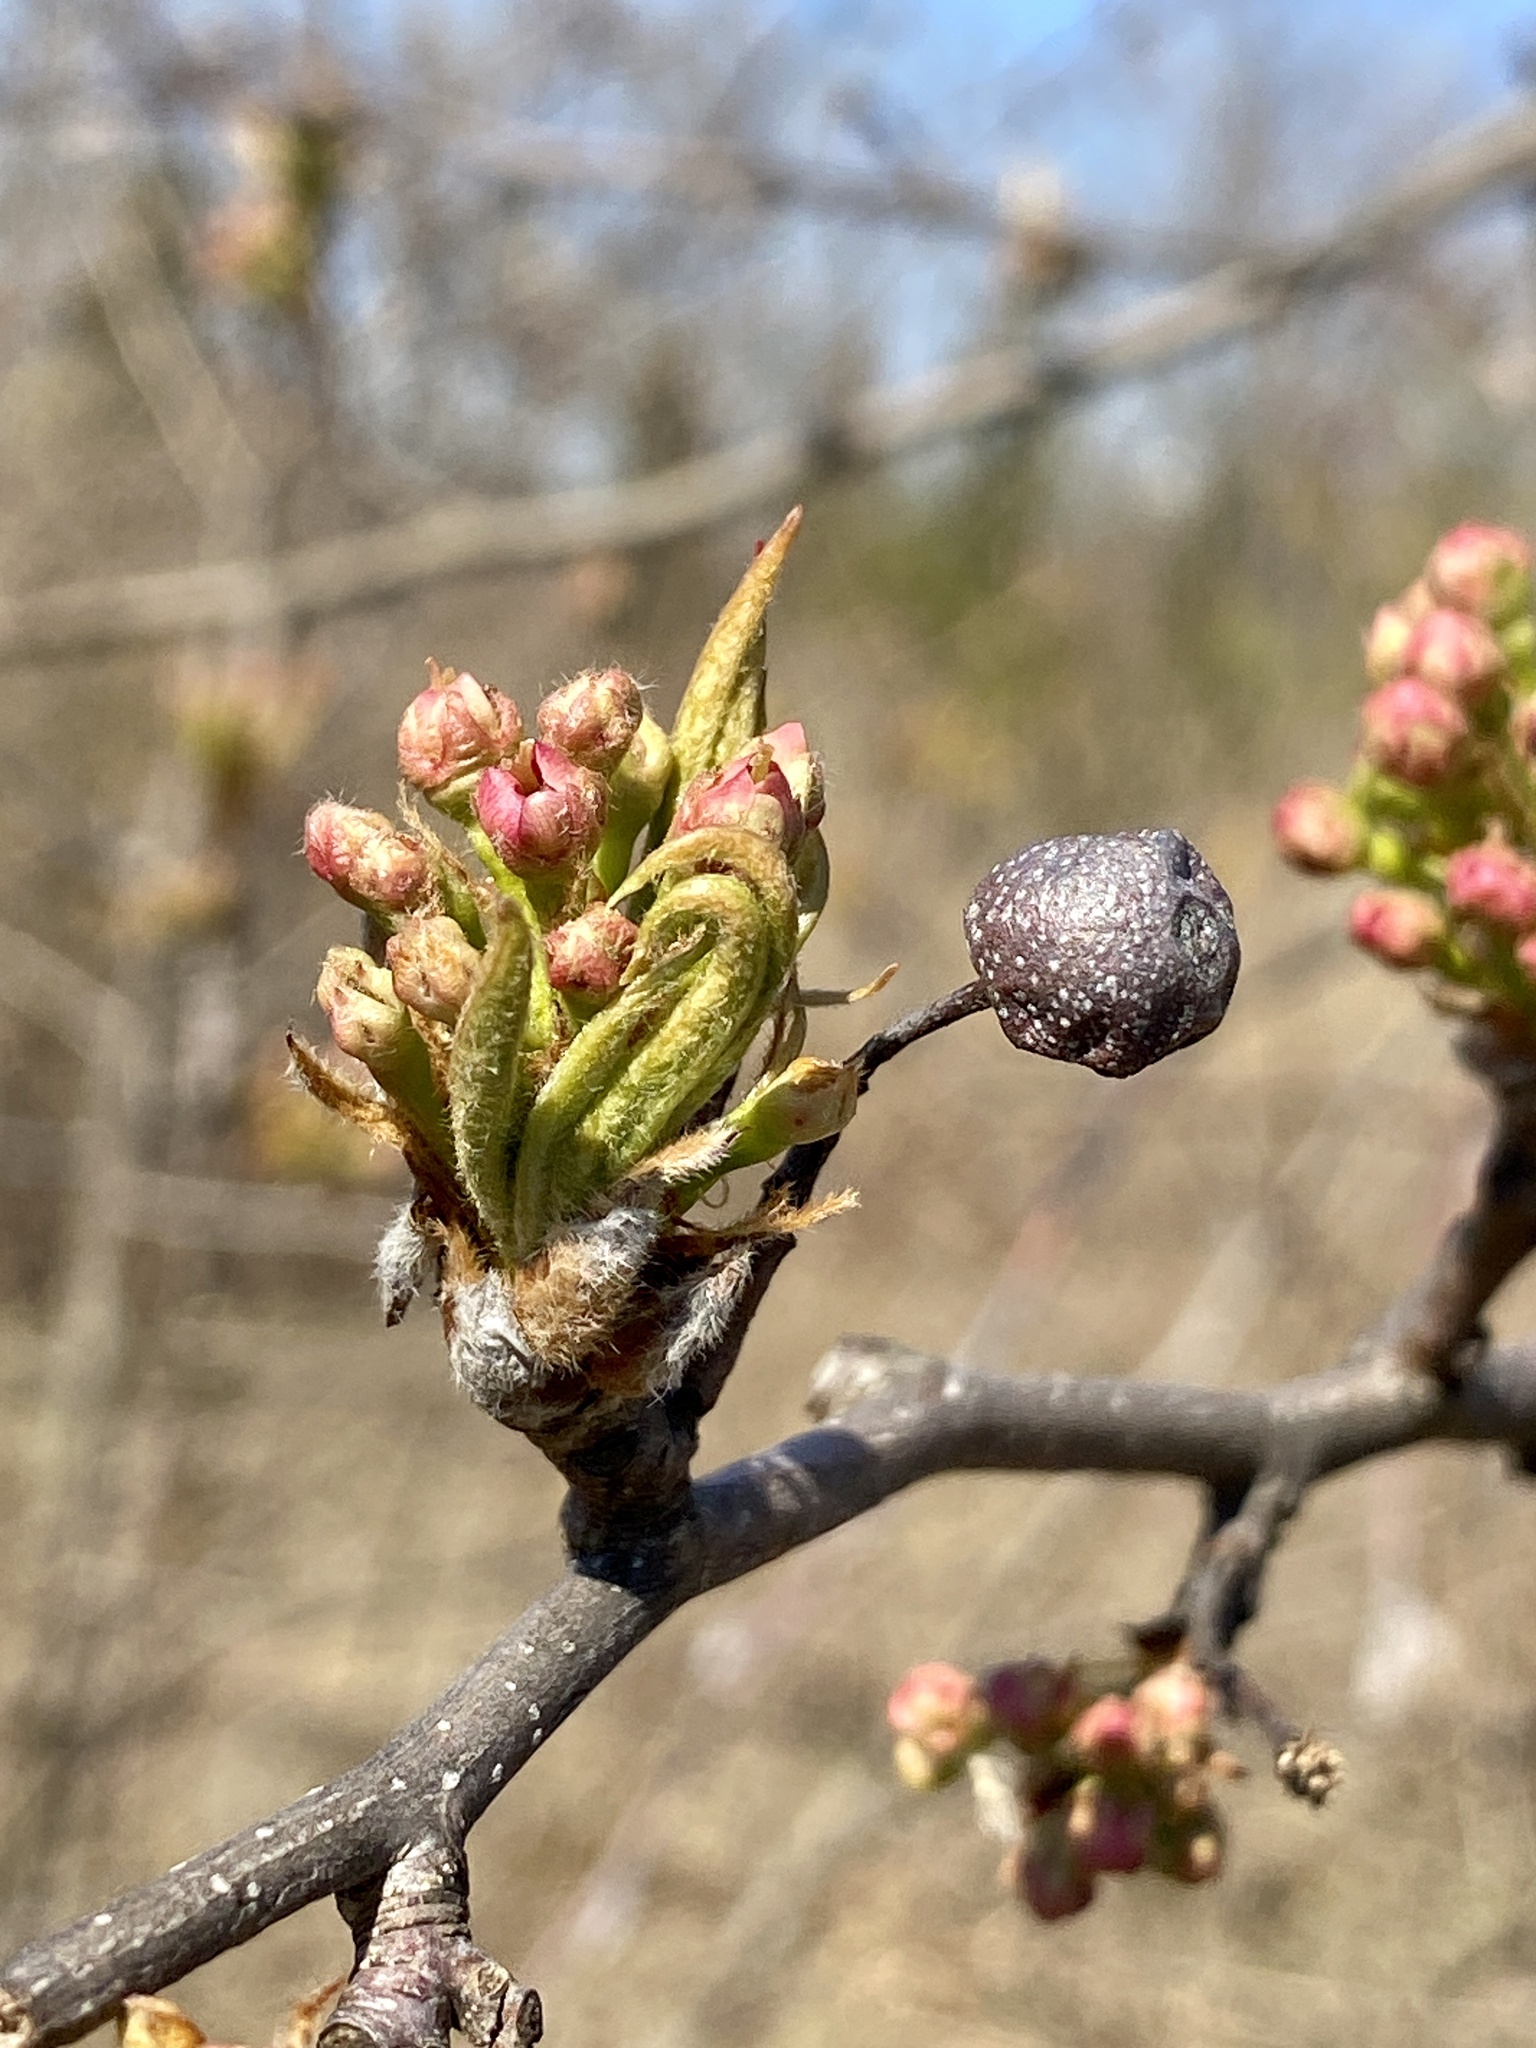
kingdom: Plantae
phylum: Tracheophyta
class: Magnoliopsida
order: Rosales
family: Rosaceae
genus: Pyrus
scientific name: Pyrus calleryana
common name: Callery pear
